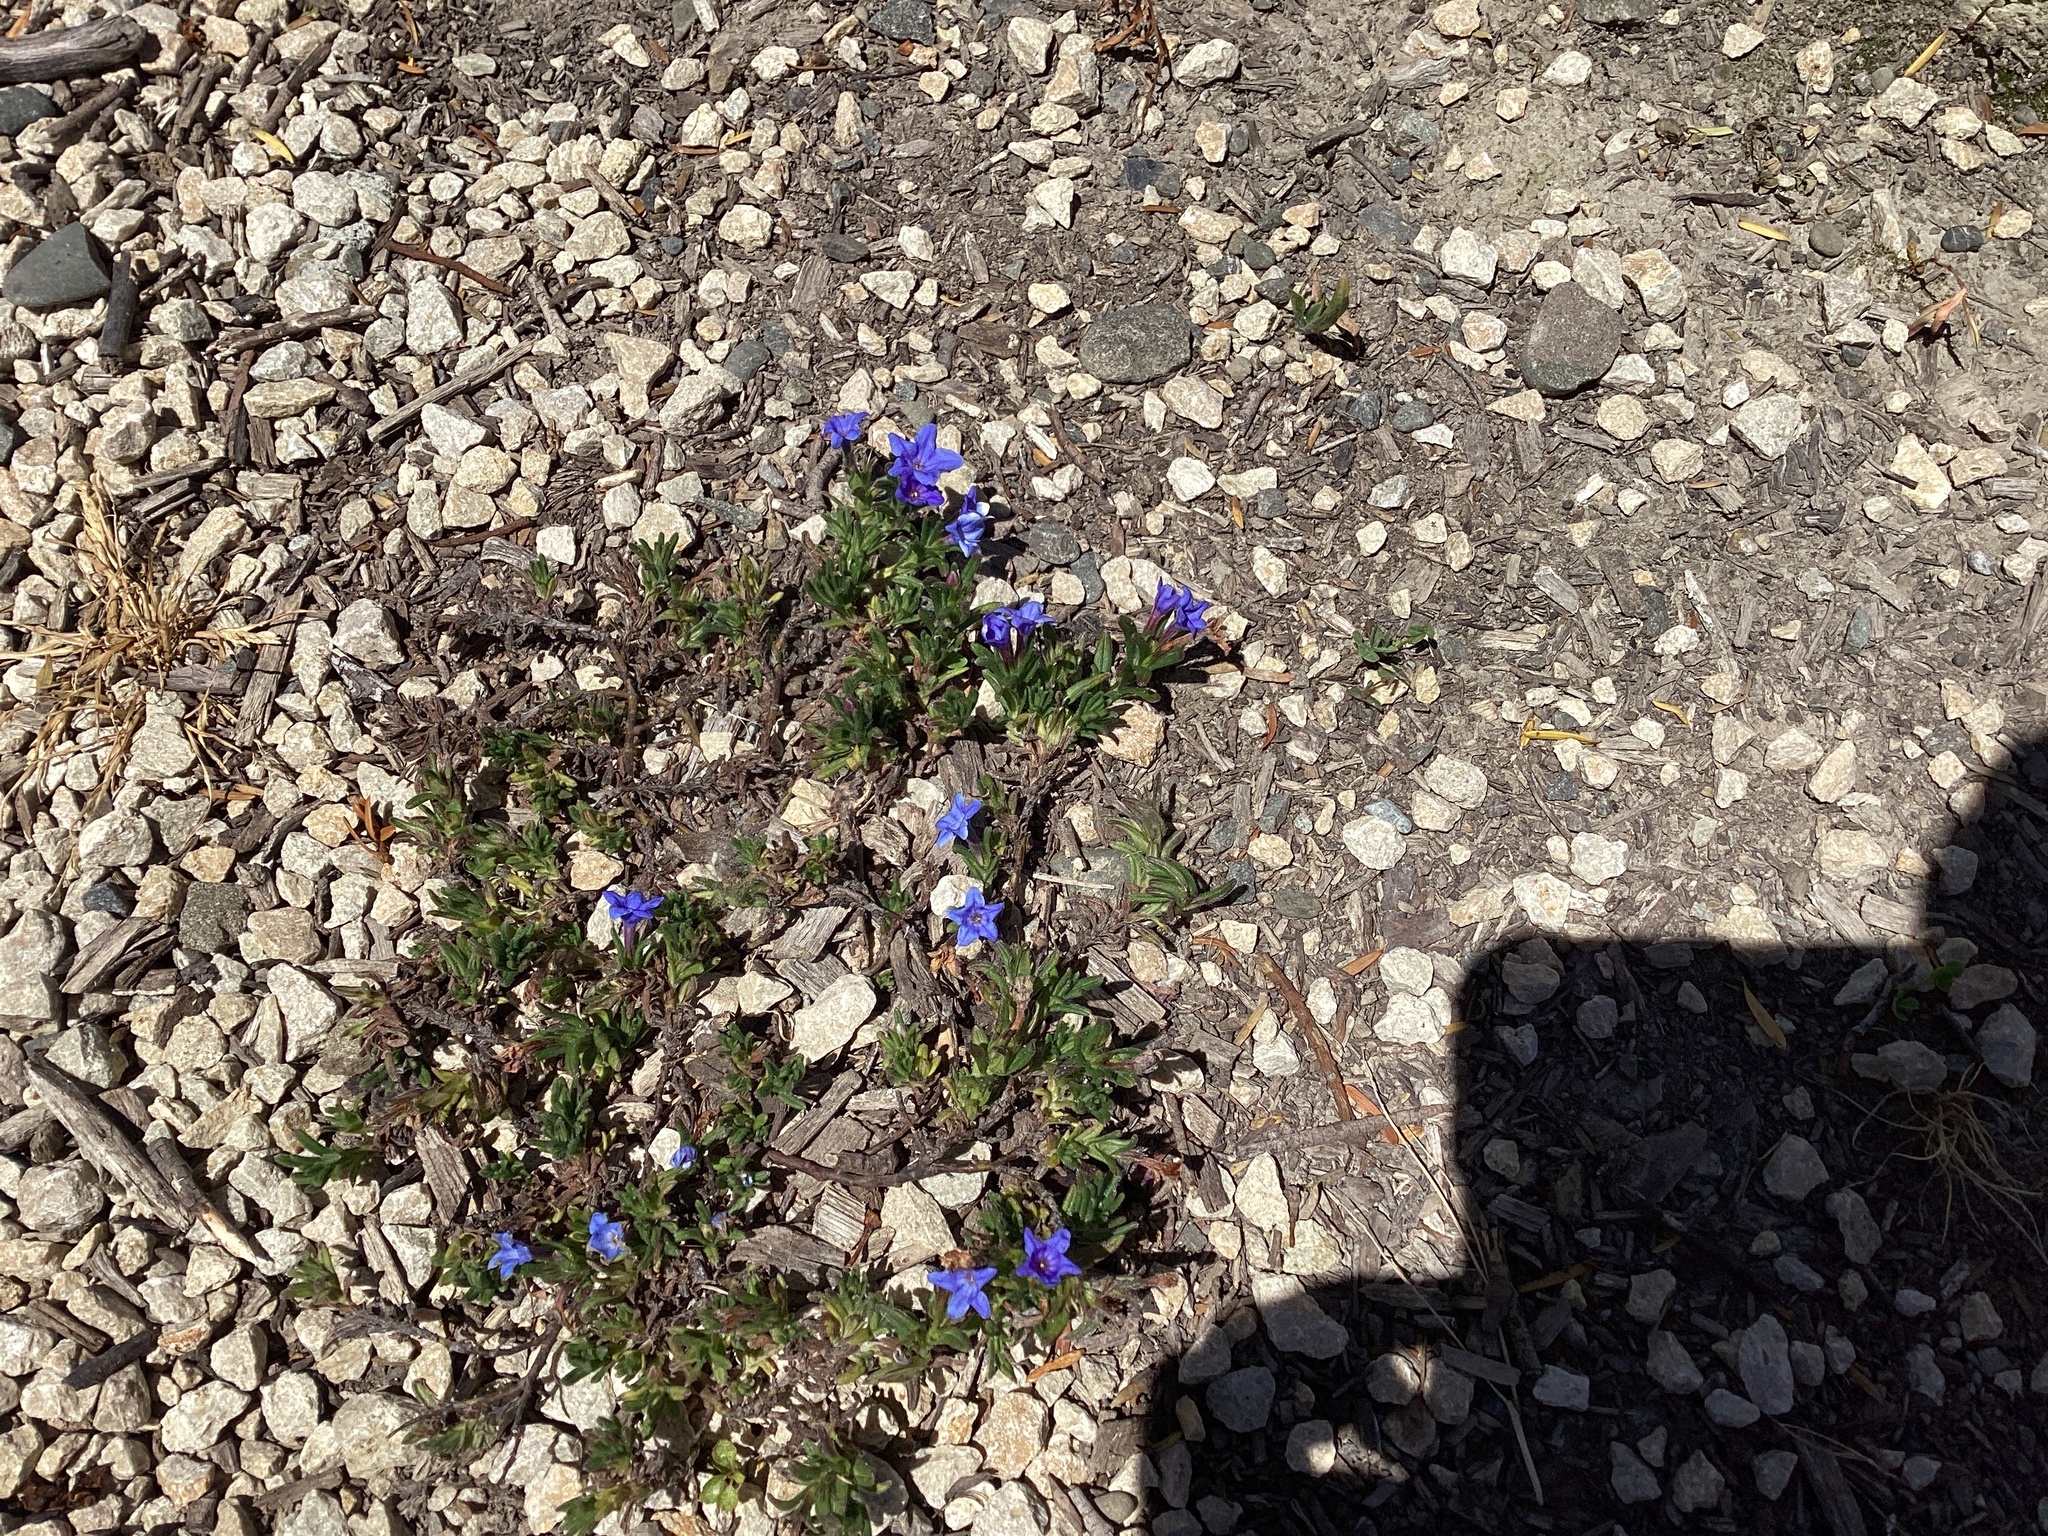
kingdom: Plantae
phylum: Tracheophyta
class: Magnoliopsida
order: Boraginales
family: Boraginaceae
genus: Glandora
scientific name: Glandora prostrata
